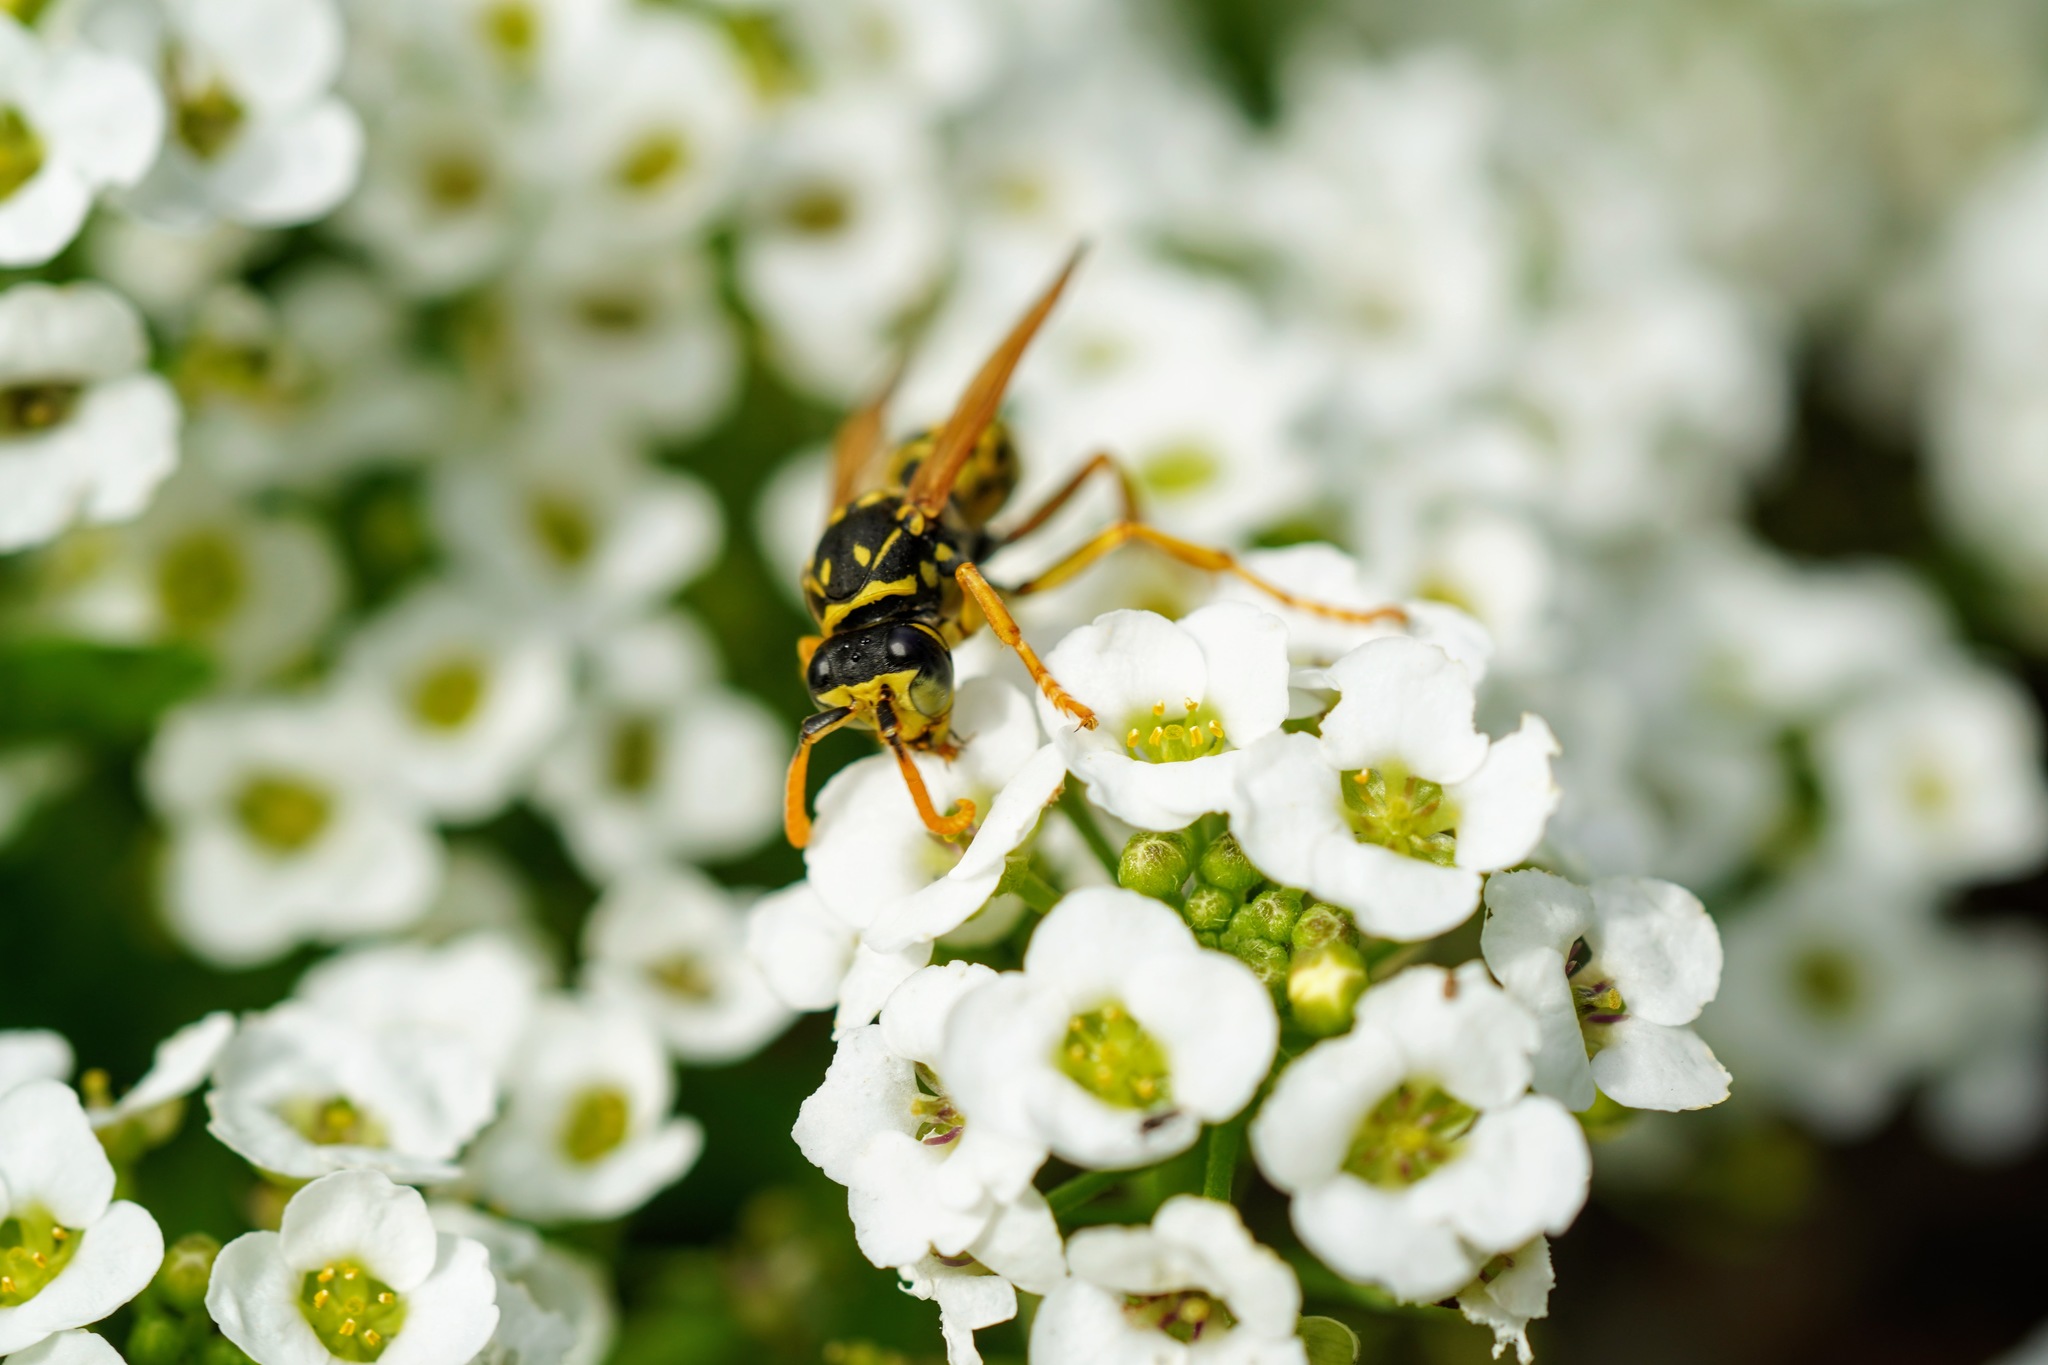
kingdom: Animalia
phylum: Arthropoda
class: Insecta
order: Hymenoptera
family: Eumenidae
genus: Polistes
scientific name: Polistes dominula
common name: Paper wasp
